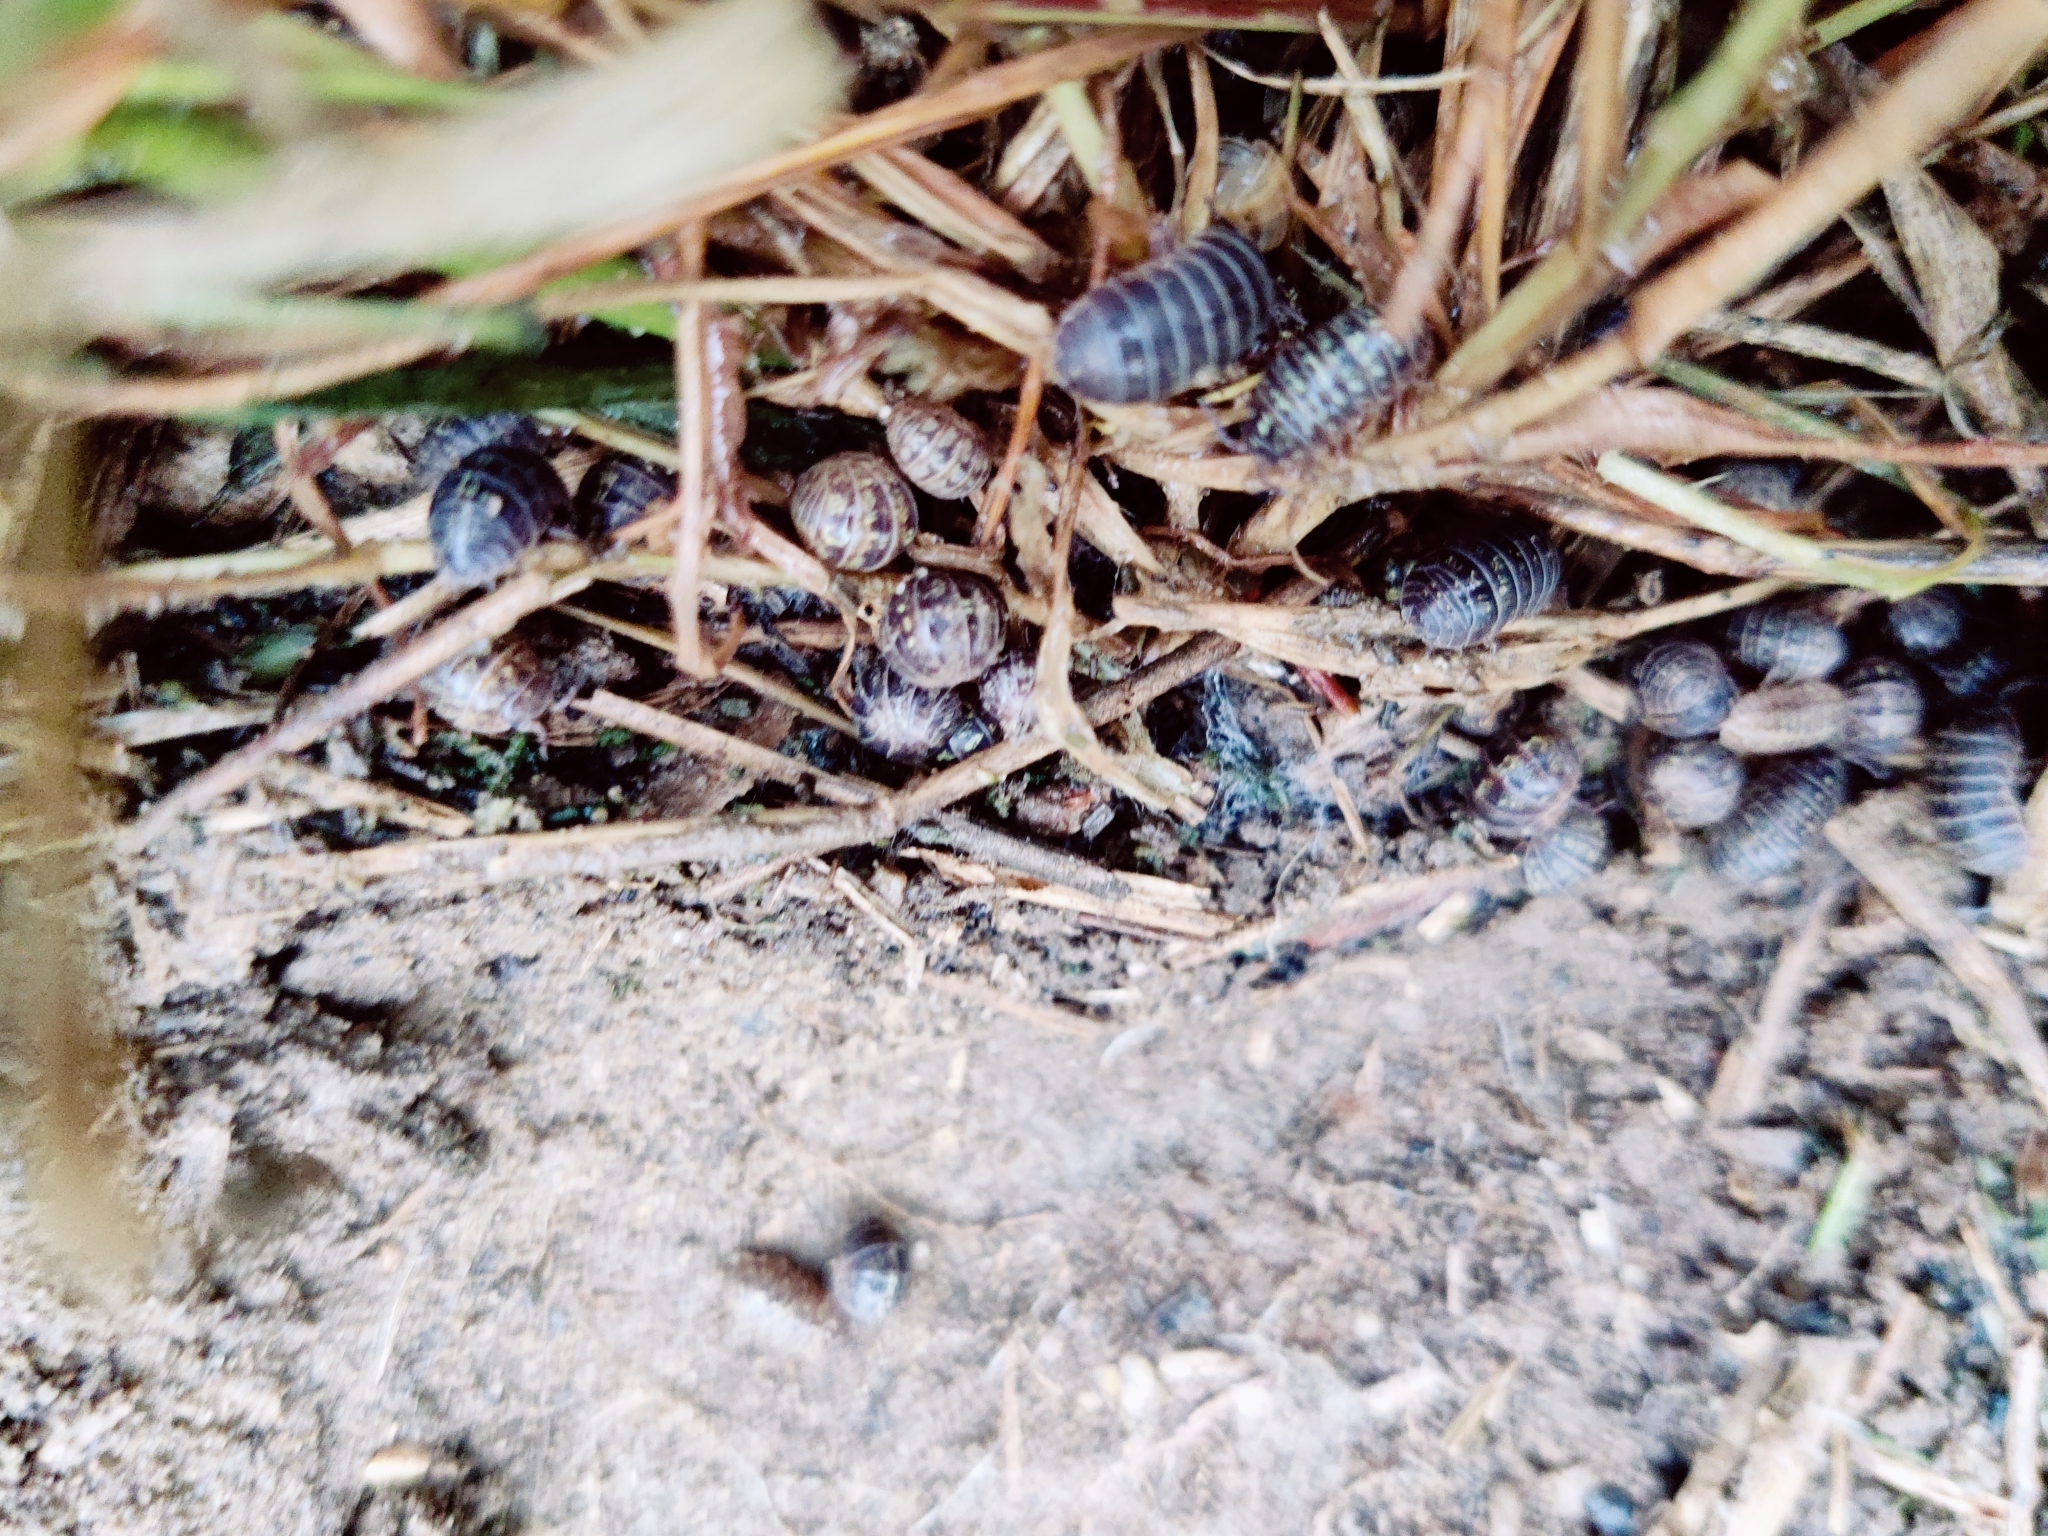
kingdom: Animalia
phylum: Arthropoda
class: Malacostraca
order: Isopoda
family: Armadillidiidae
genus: Armadillidium
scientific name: Armadillidium vulgare
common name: Common pill woodlouse
